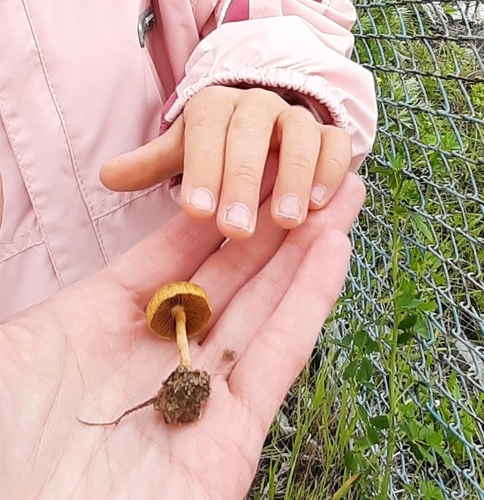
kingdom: Fungi
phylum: Basidiomycota
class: Agaricomycetes
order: Agaricales
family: Strophariaceae
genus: Agrocybe
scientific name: Agrocybe
